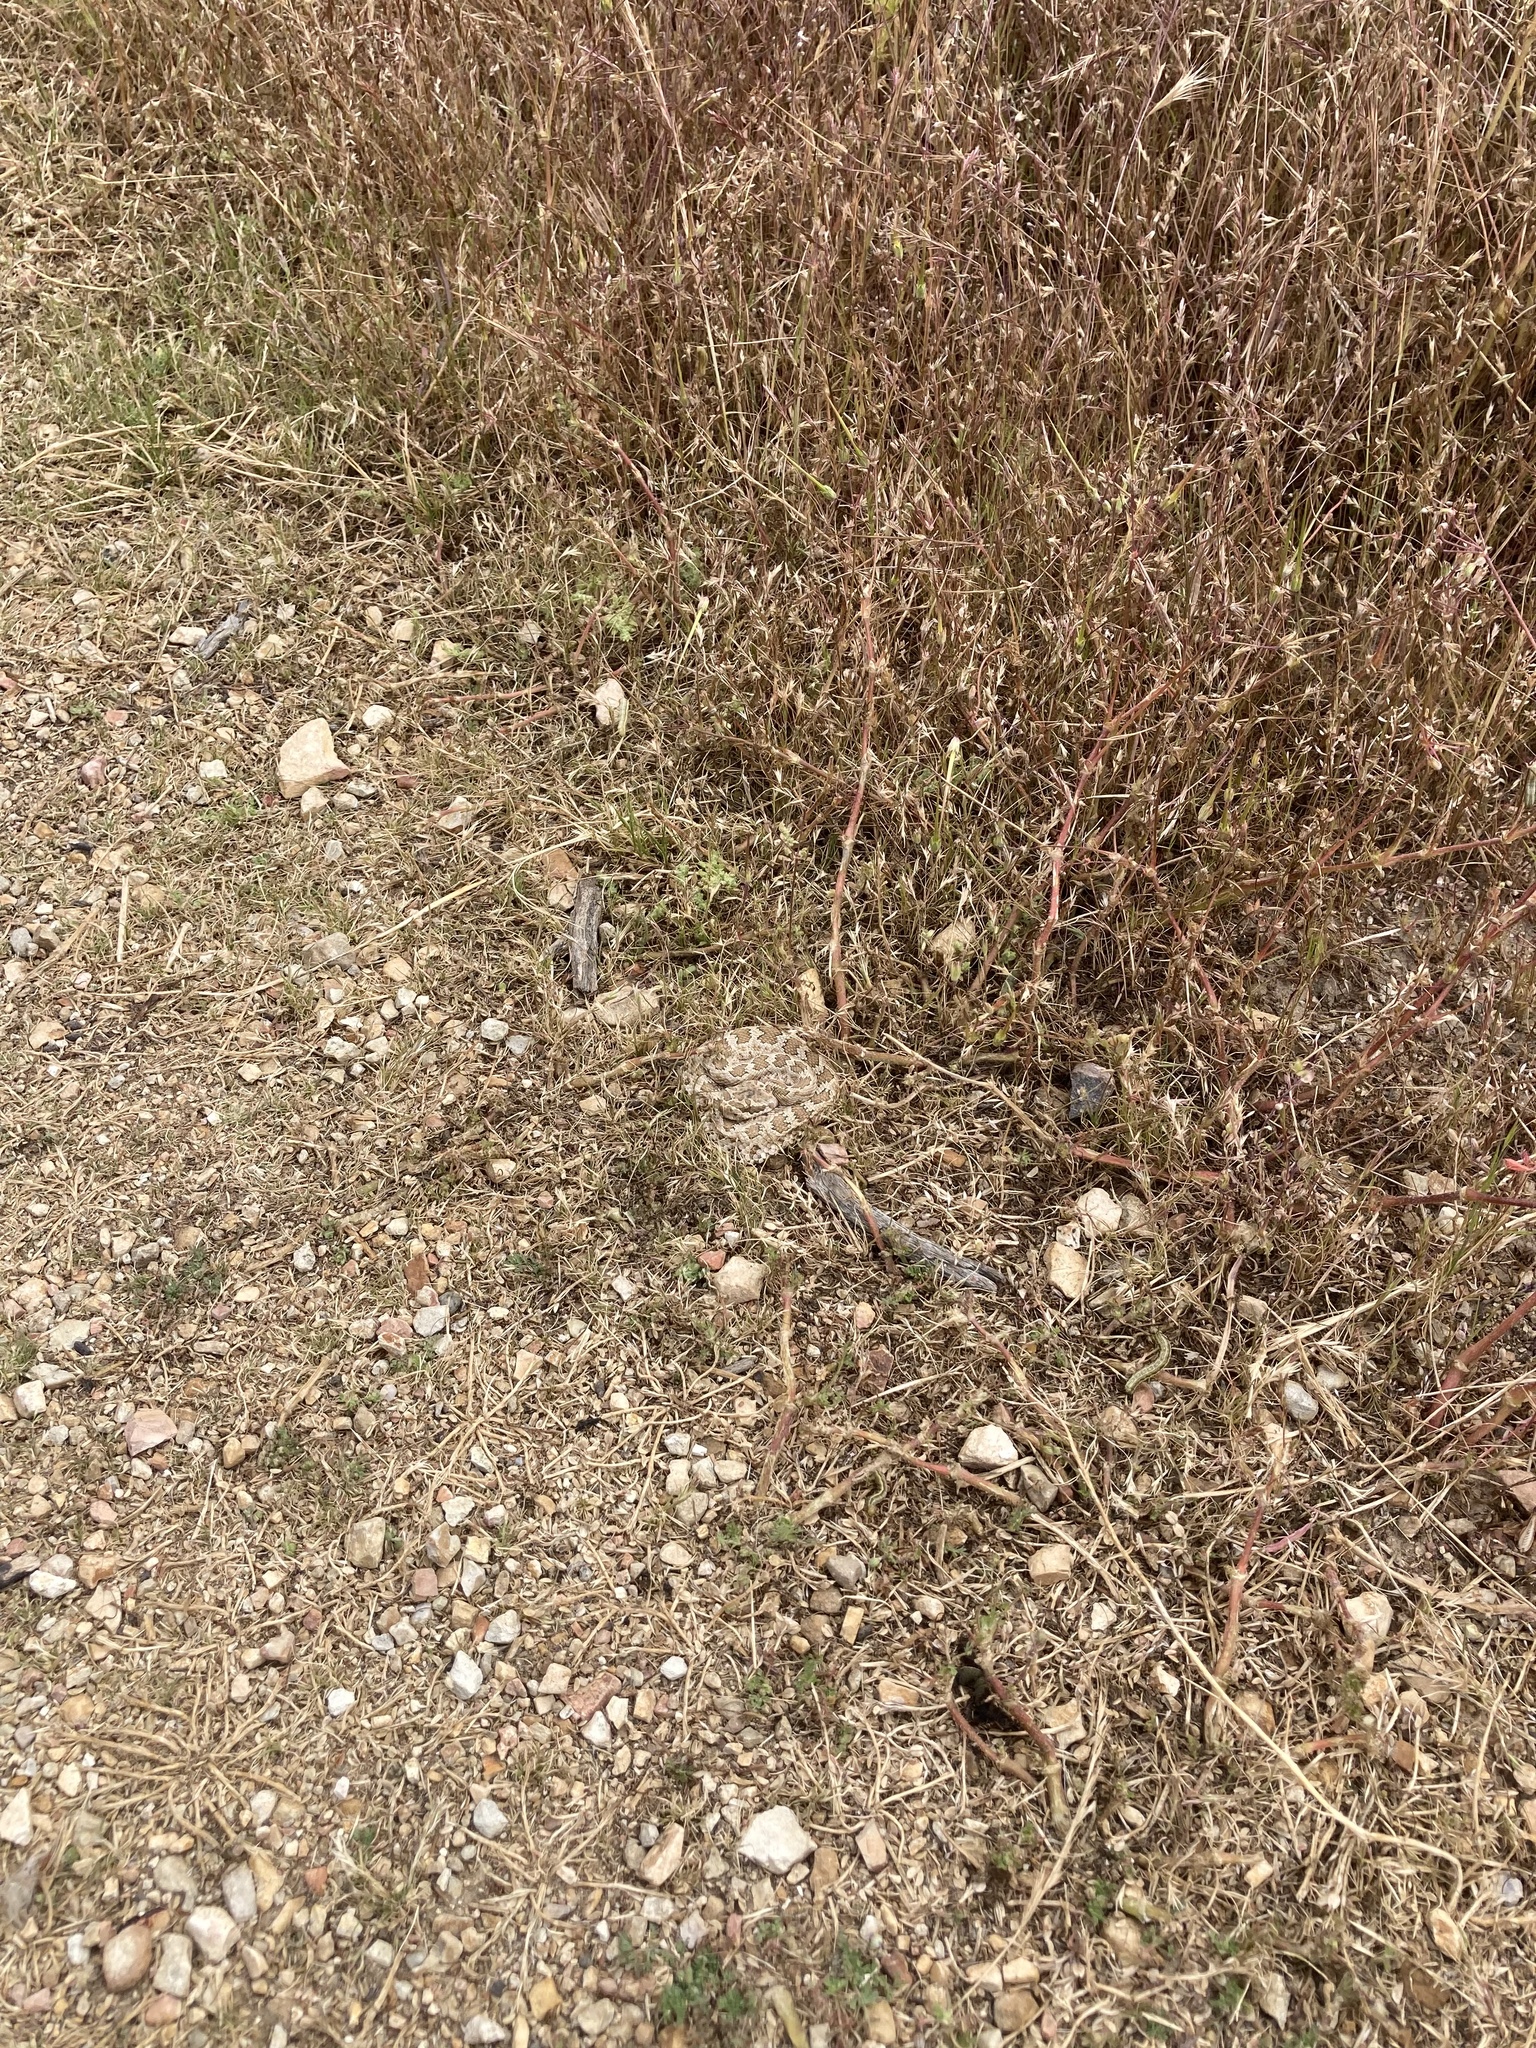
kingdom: Animalia
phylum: Chordata
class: Squamata
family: Viperidae
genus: Crotalus
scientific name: Crotalus oreganus
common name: Abyssus
